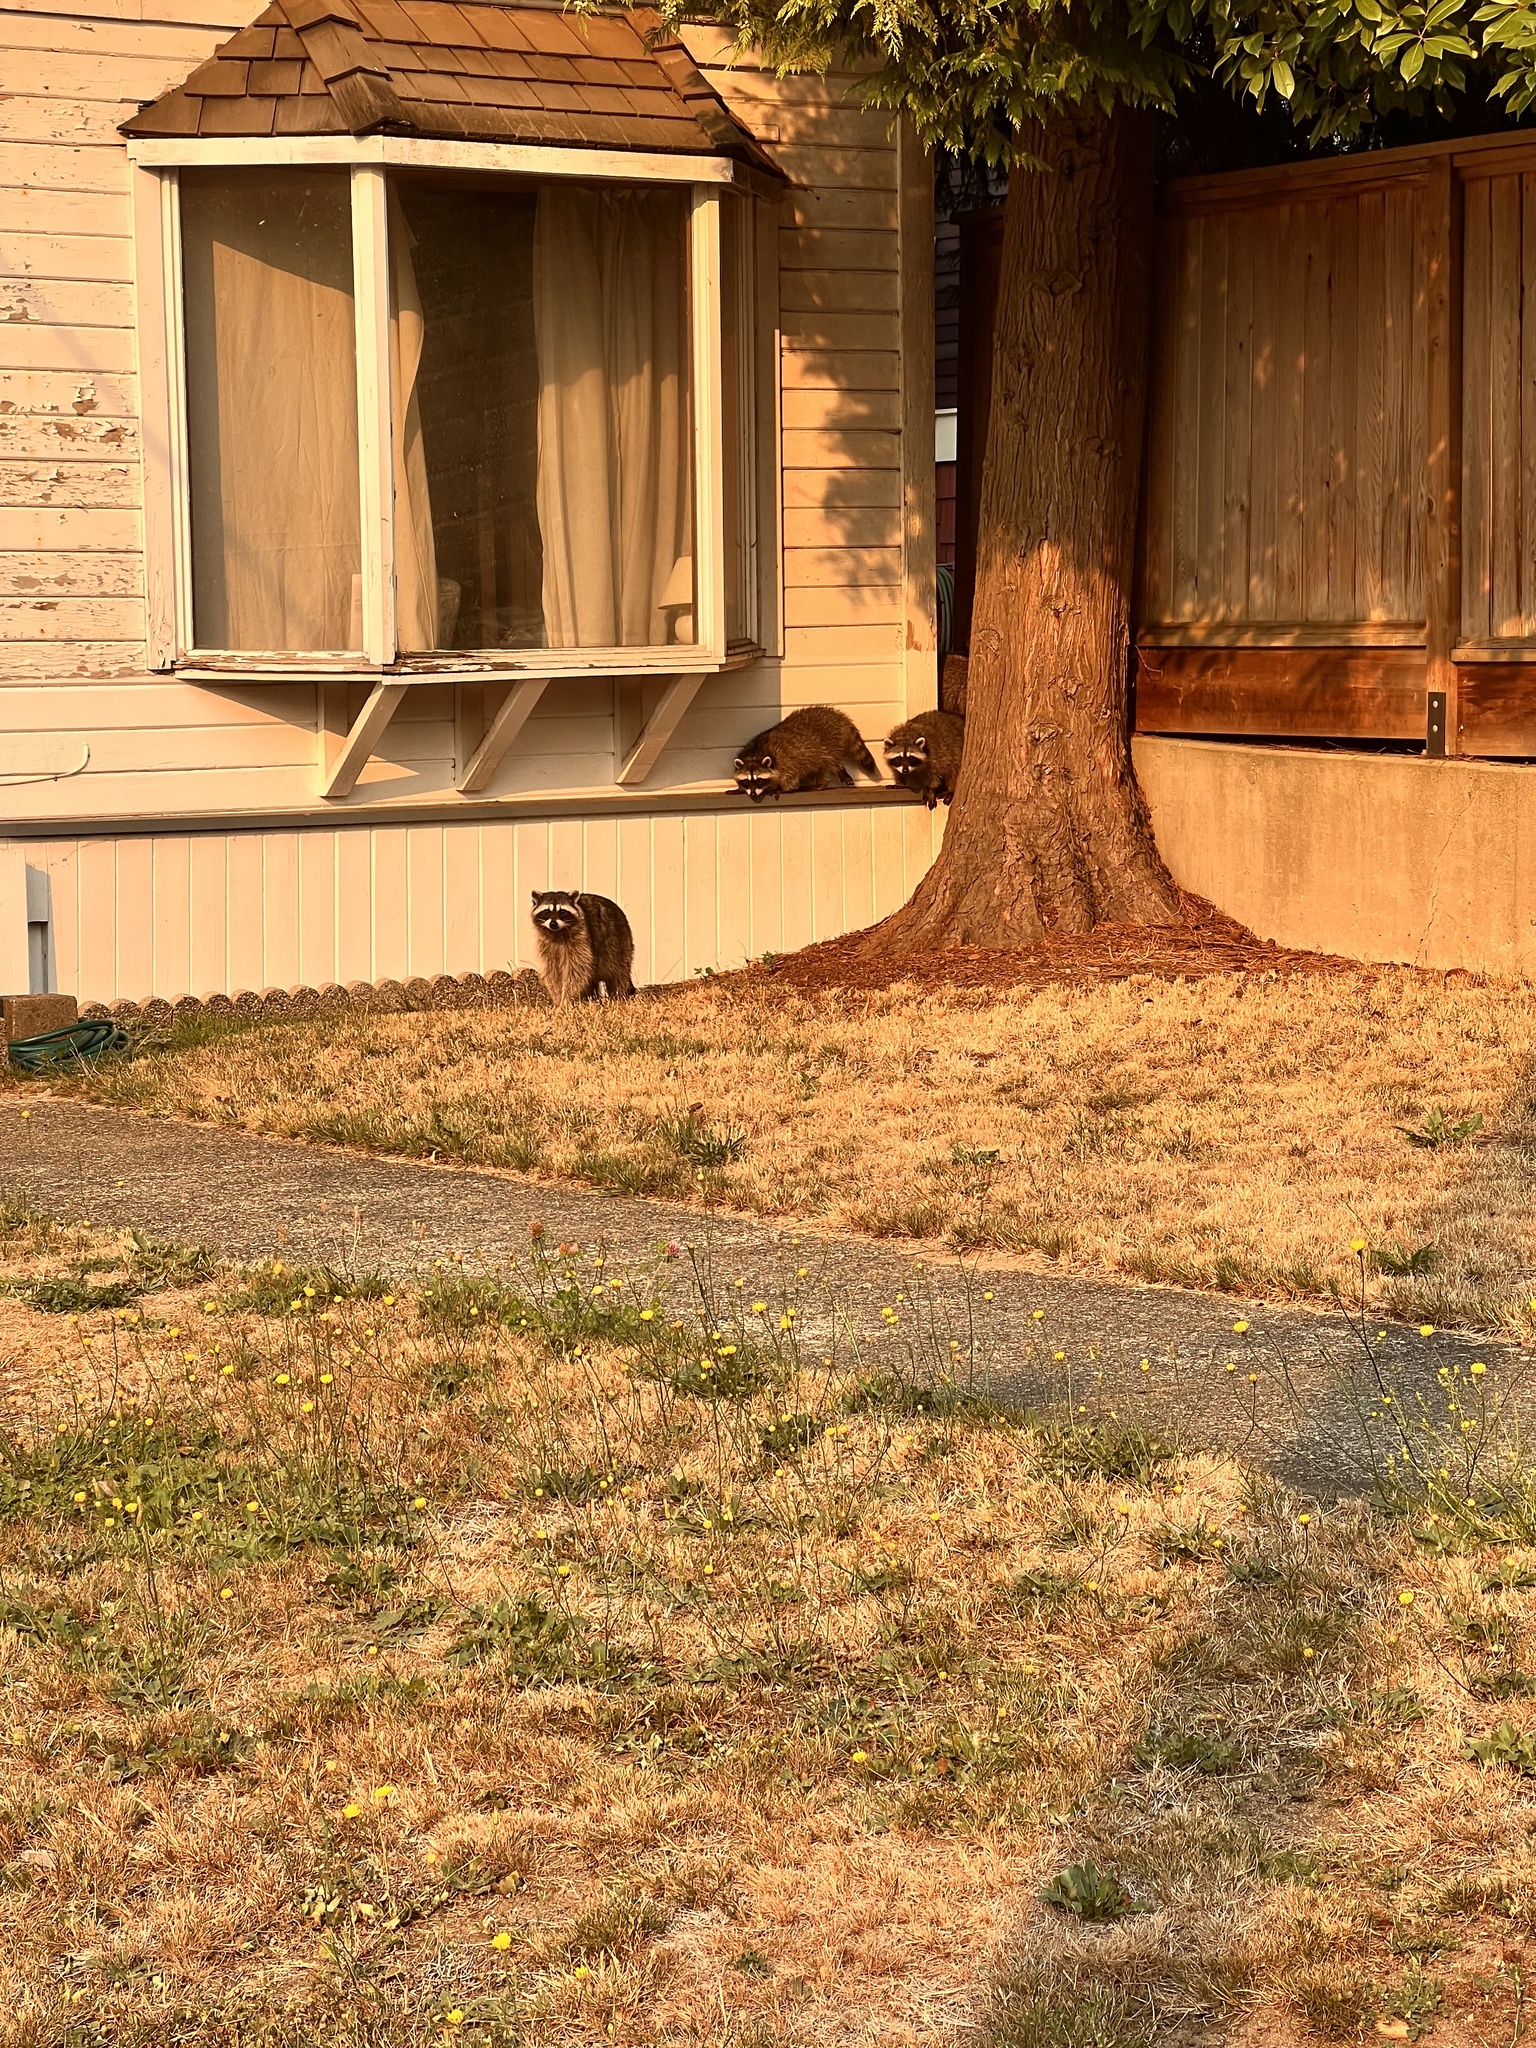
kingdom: Animalia
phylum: Chordata
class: Mammalia
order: Carnivora
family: Procyonidae
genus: Procyon
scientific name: Procyon lotor
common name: Raccoon
